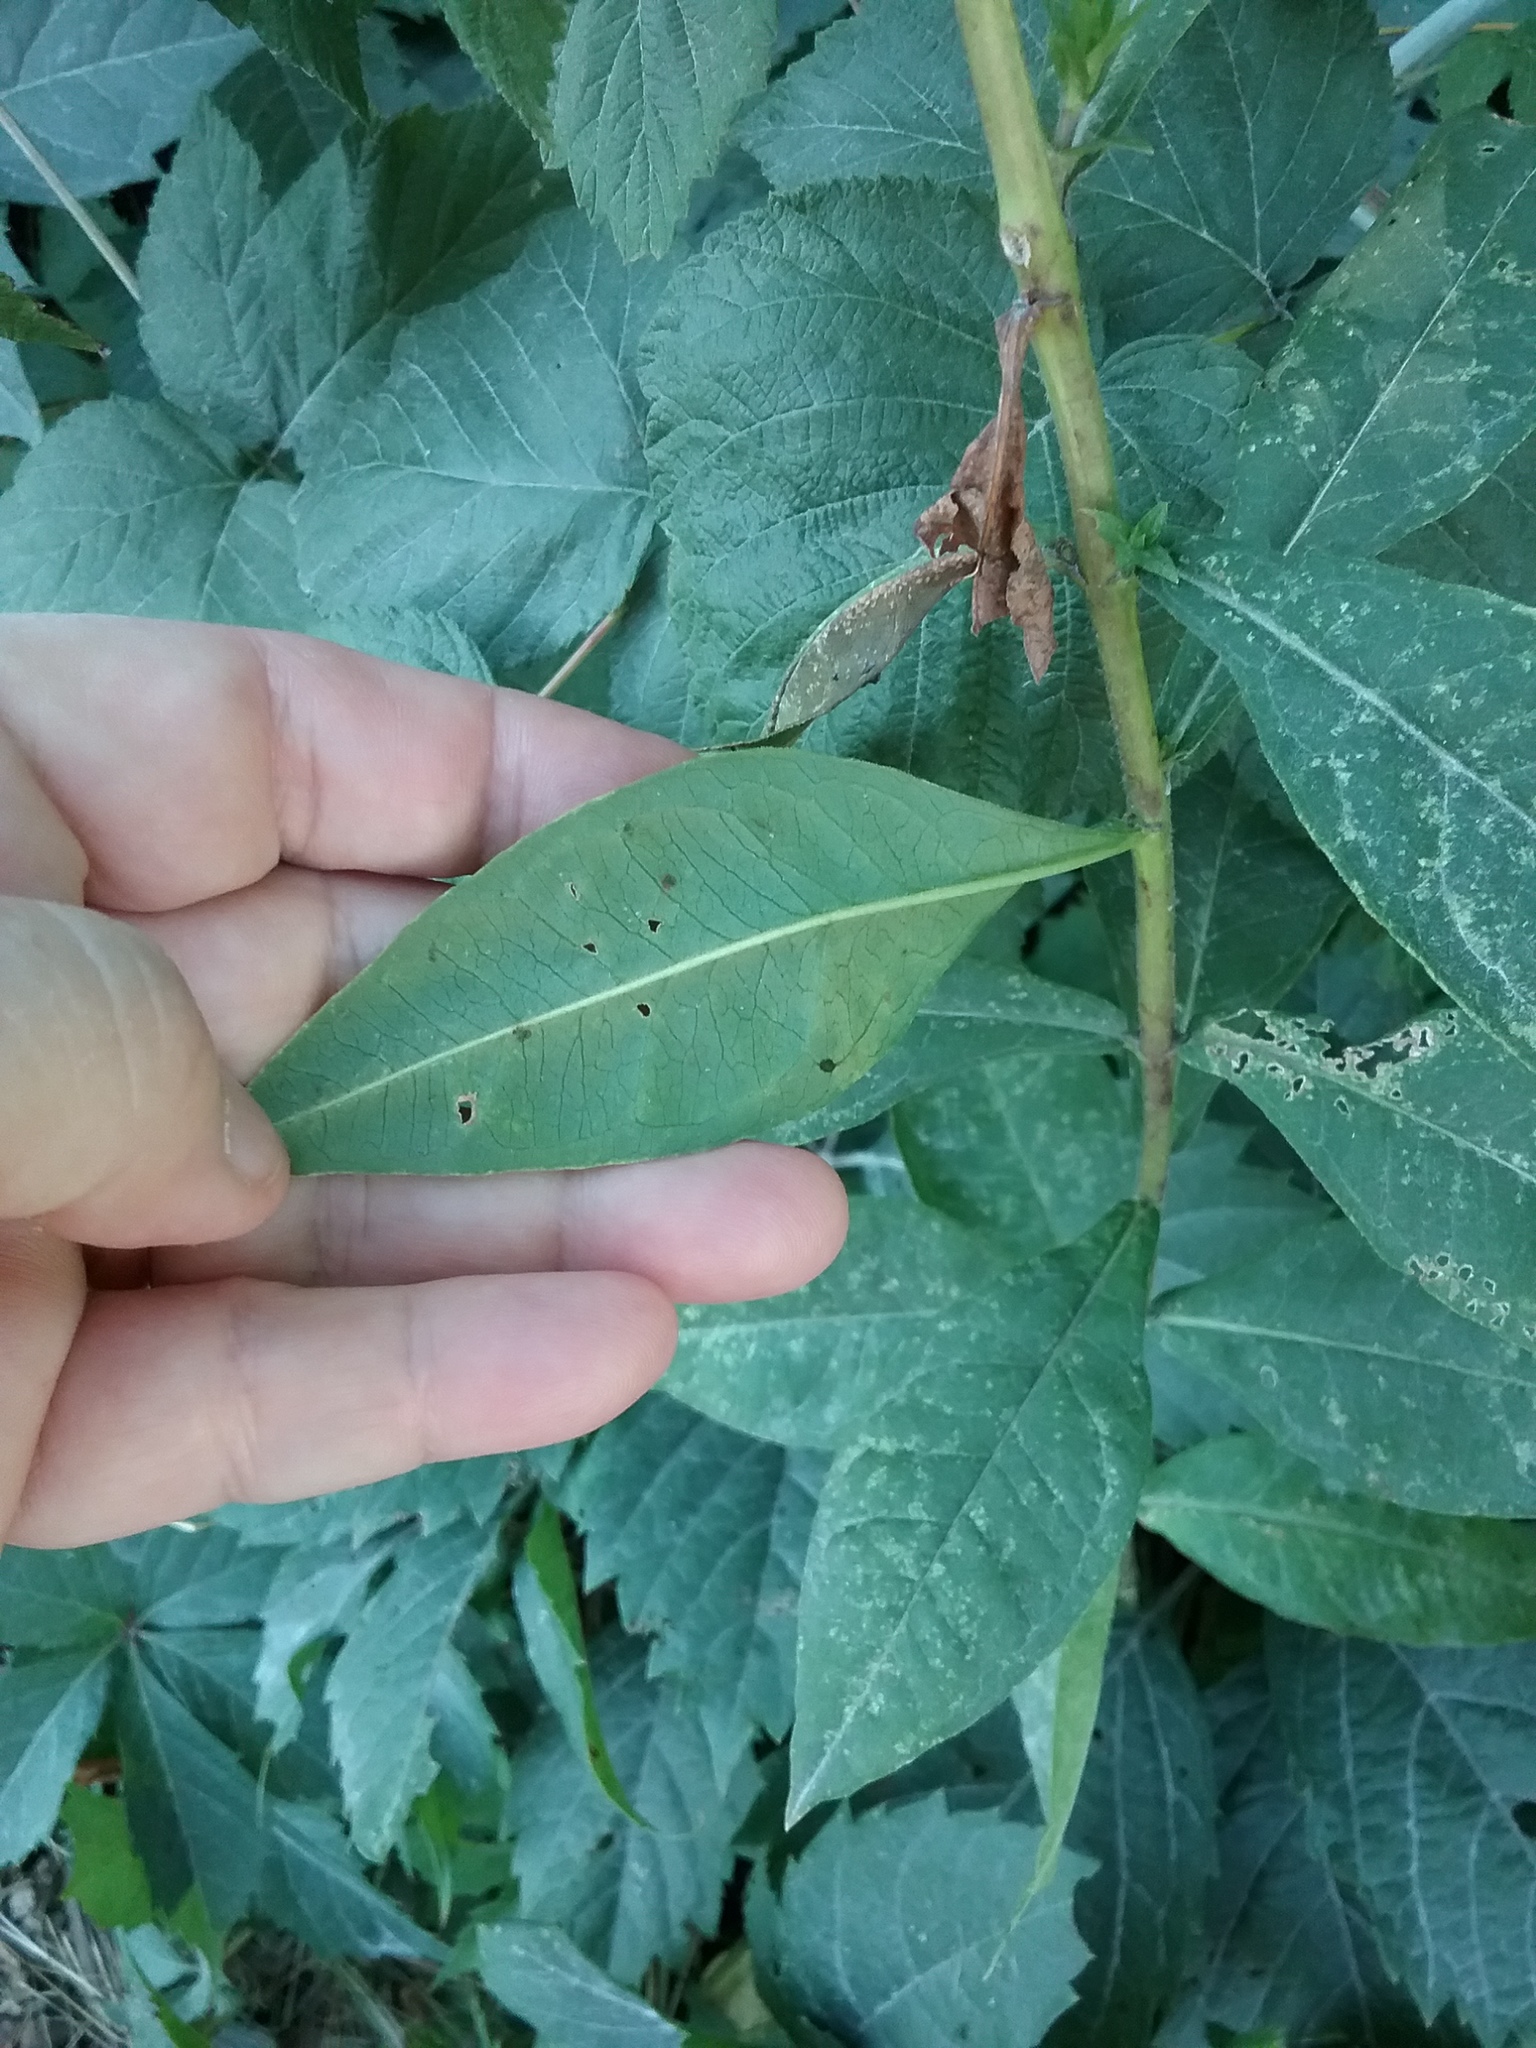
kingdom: Plantae
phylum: Tracheophyta
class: Magnoliopsida
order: Ericales
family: Polemoniaceae
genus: Phlox
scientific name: Phlox paniculata
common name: Fall phlox
